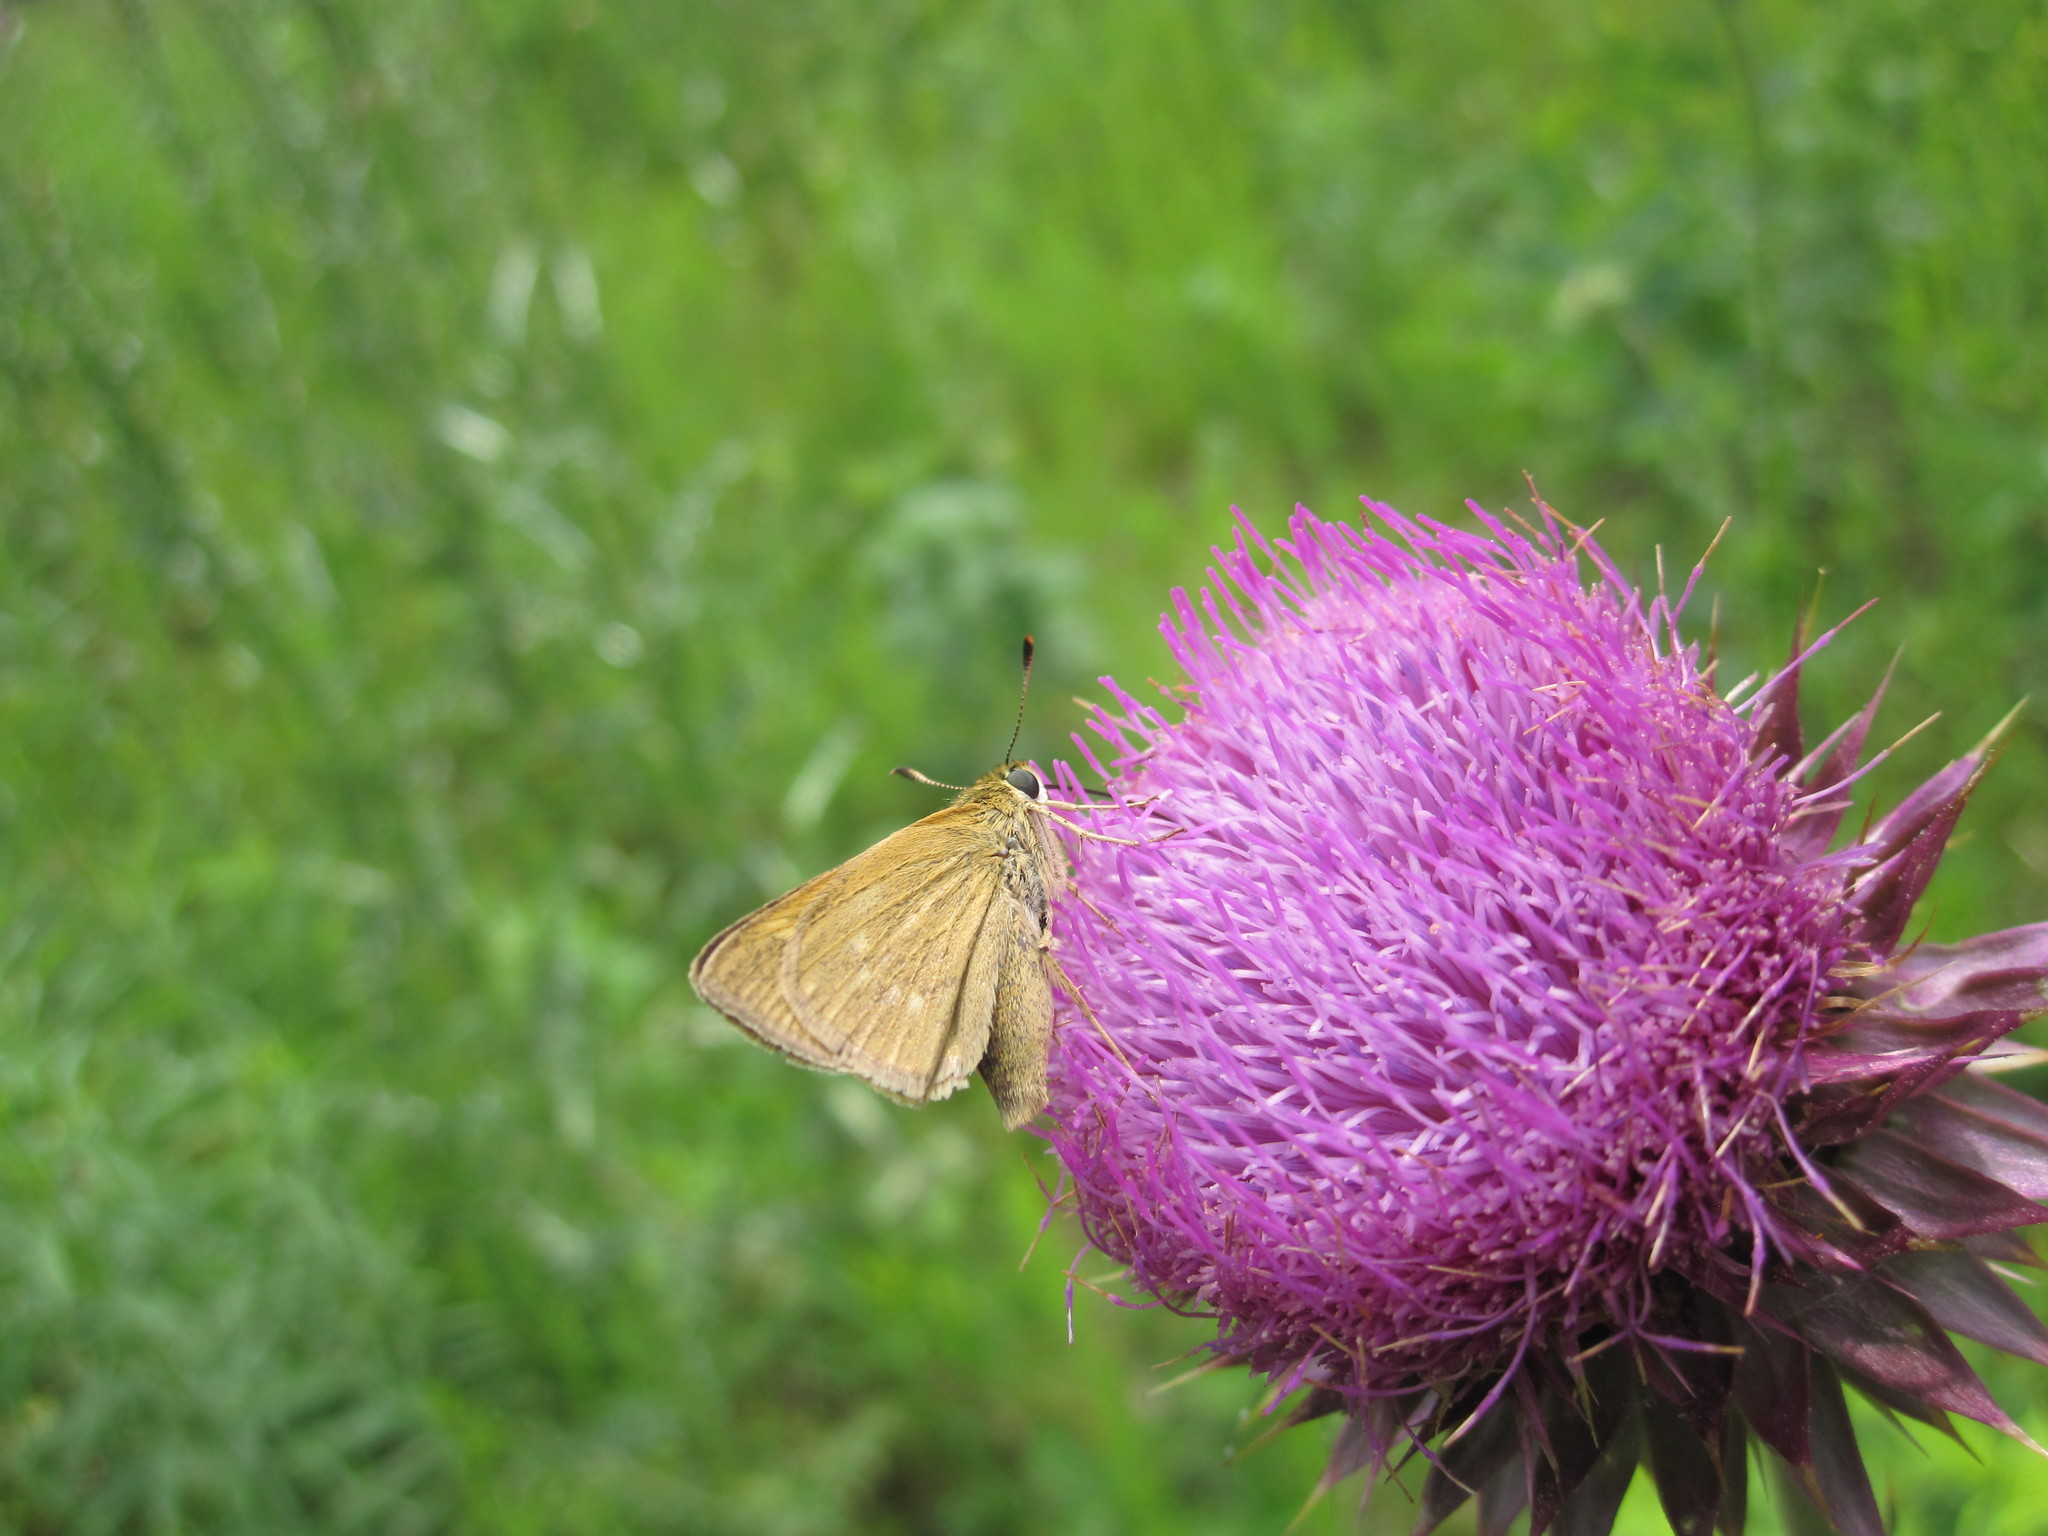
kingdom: Animalia
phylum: Arthropoda
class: Insecta
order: Lepidoptera
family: Hesperiidae
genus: Polites
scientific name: Polites themistocles
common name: Tawny-edged skipper
